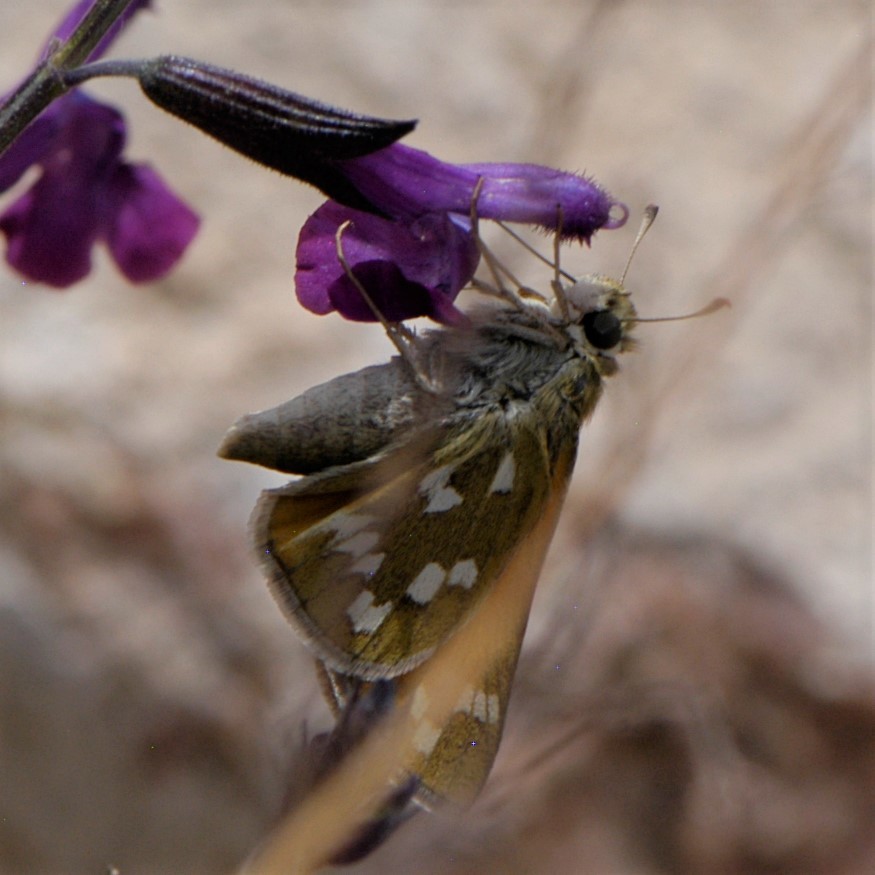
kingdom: Animalia
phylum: Arthropoda
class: Insecta
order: Lepidoptera
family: Hesperiidae
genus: Hesperia
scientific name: Hesperia viridis
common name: Green skipper
